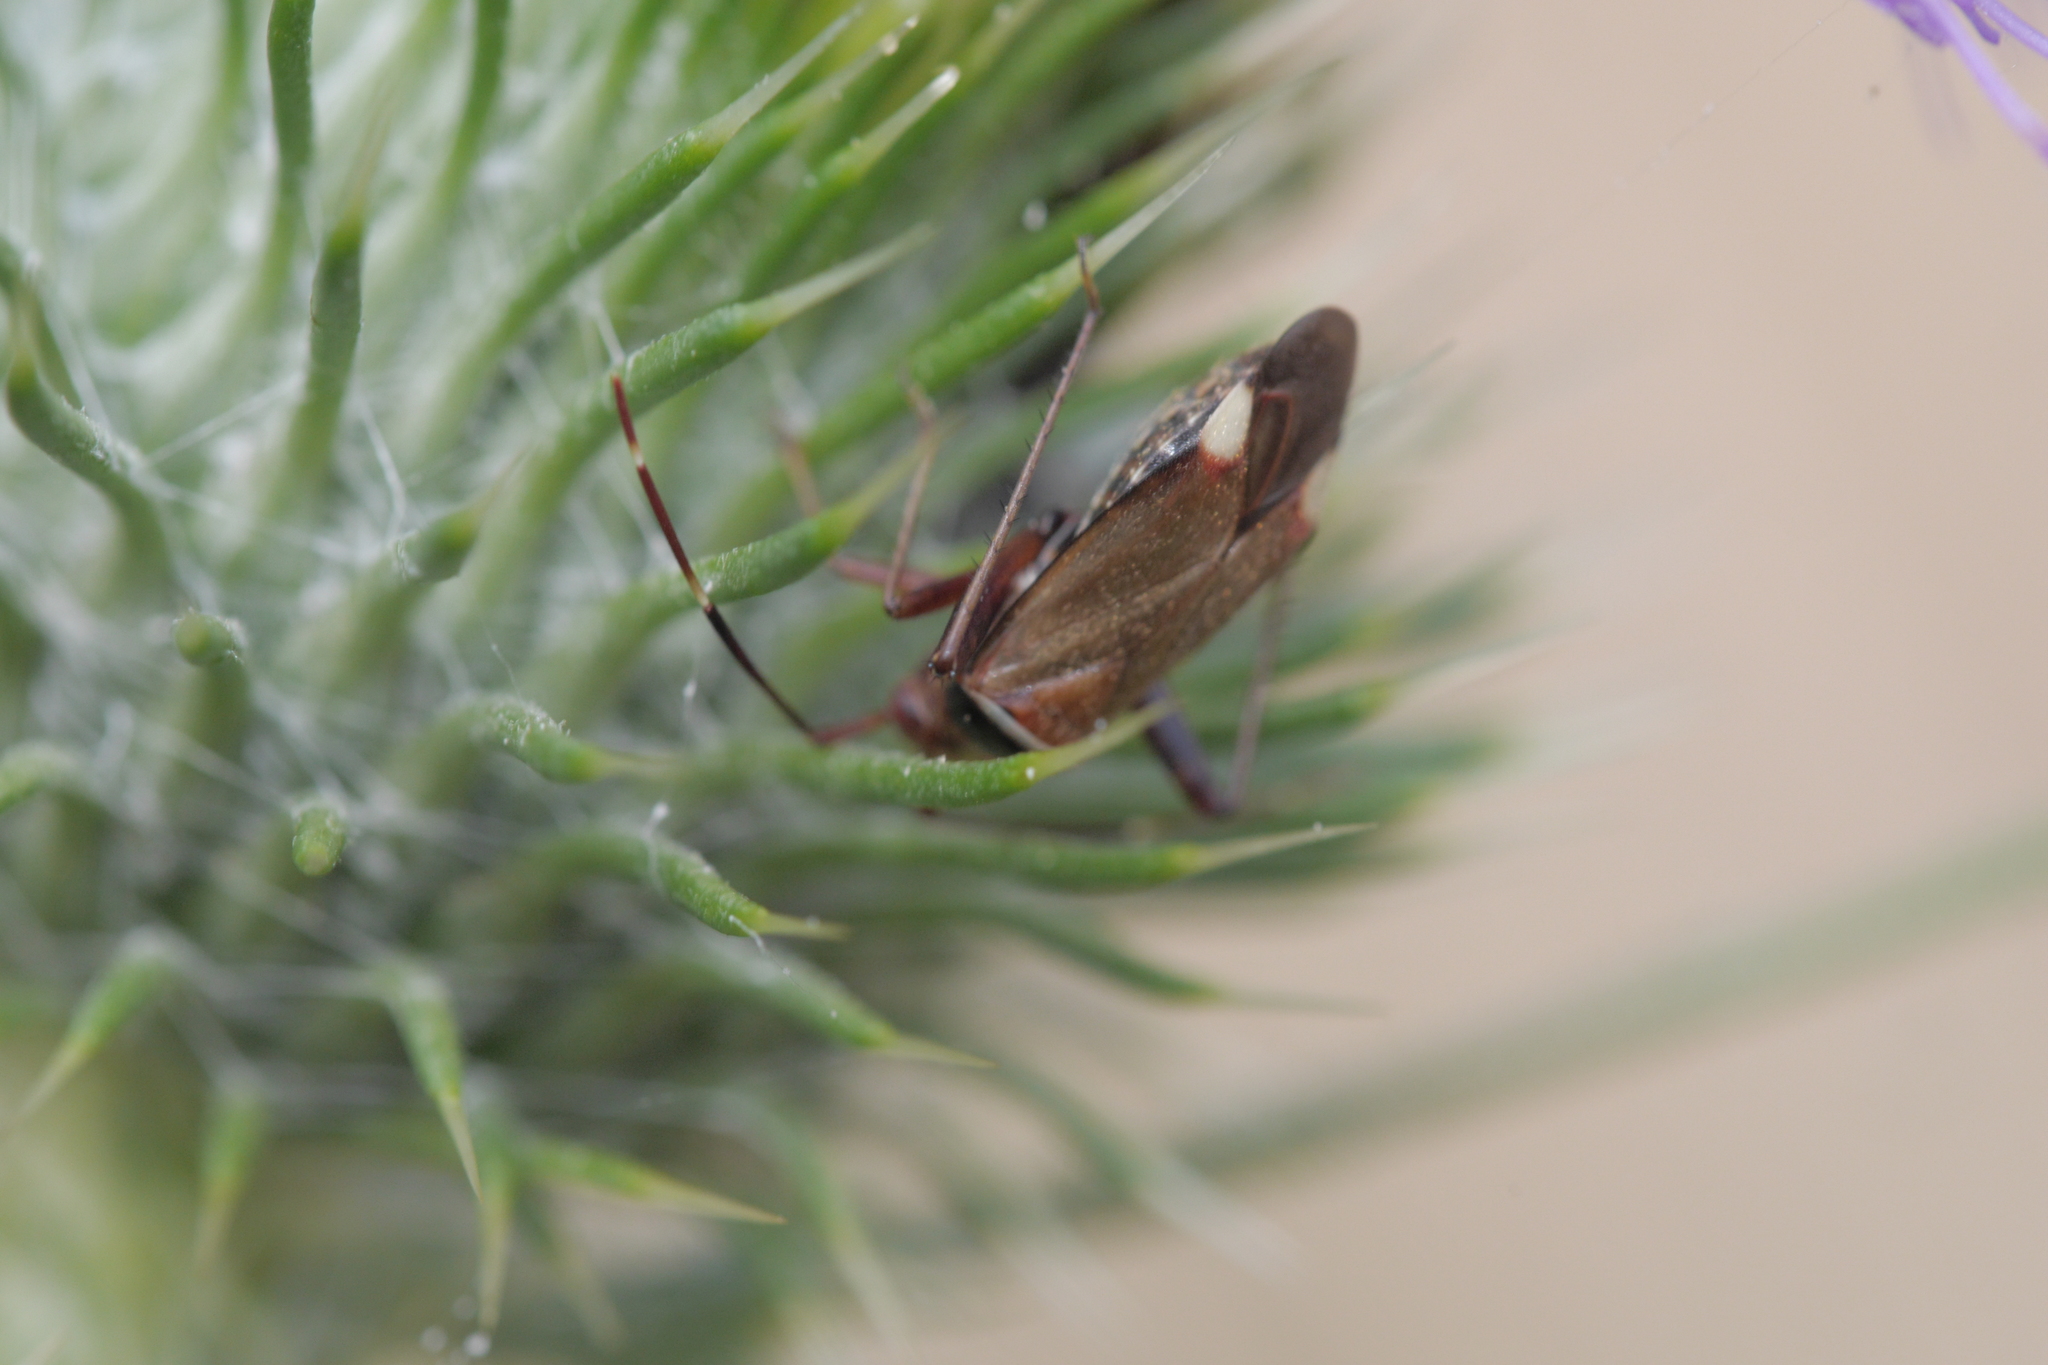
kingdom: Animalia
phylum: Arthropoda
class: Insecta
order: Hemiptera
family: Miridae
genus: Adelphocoris
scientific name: Adelphocoris vandalicus
